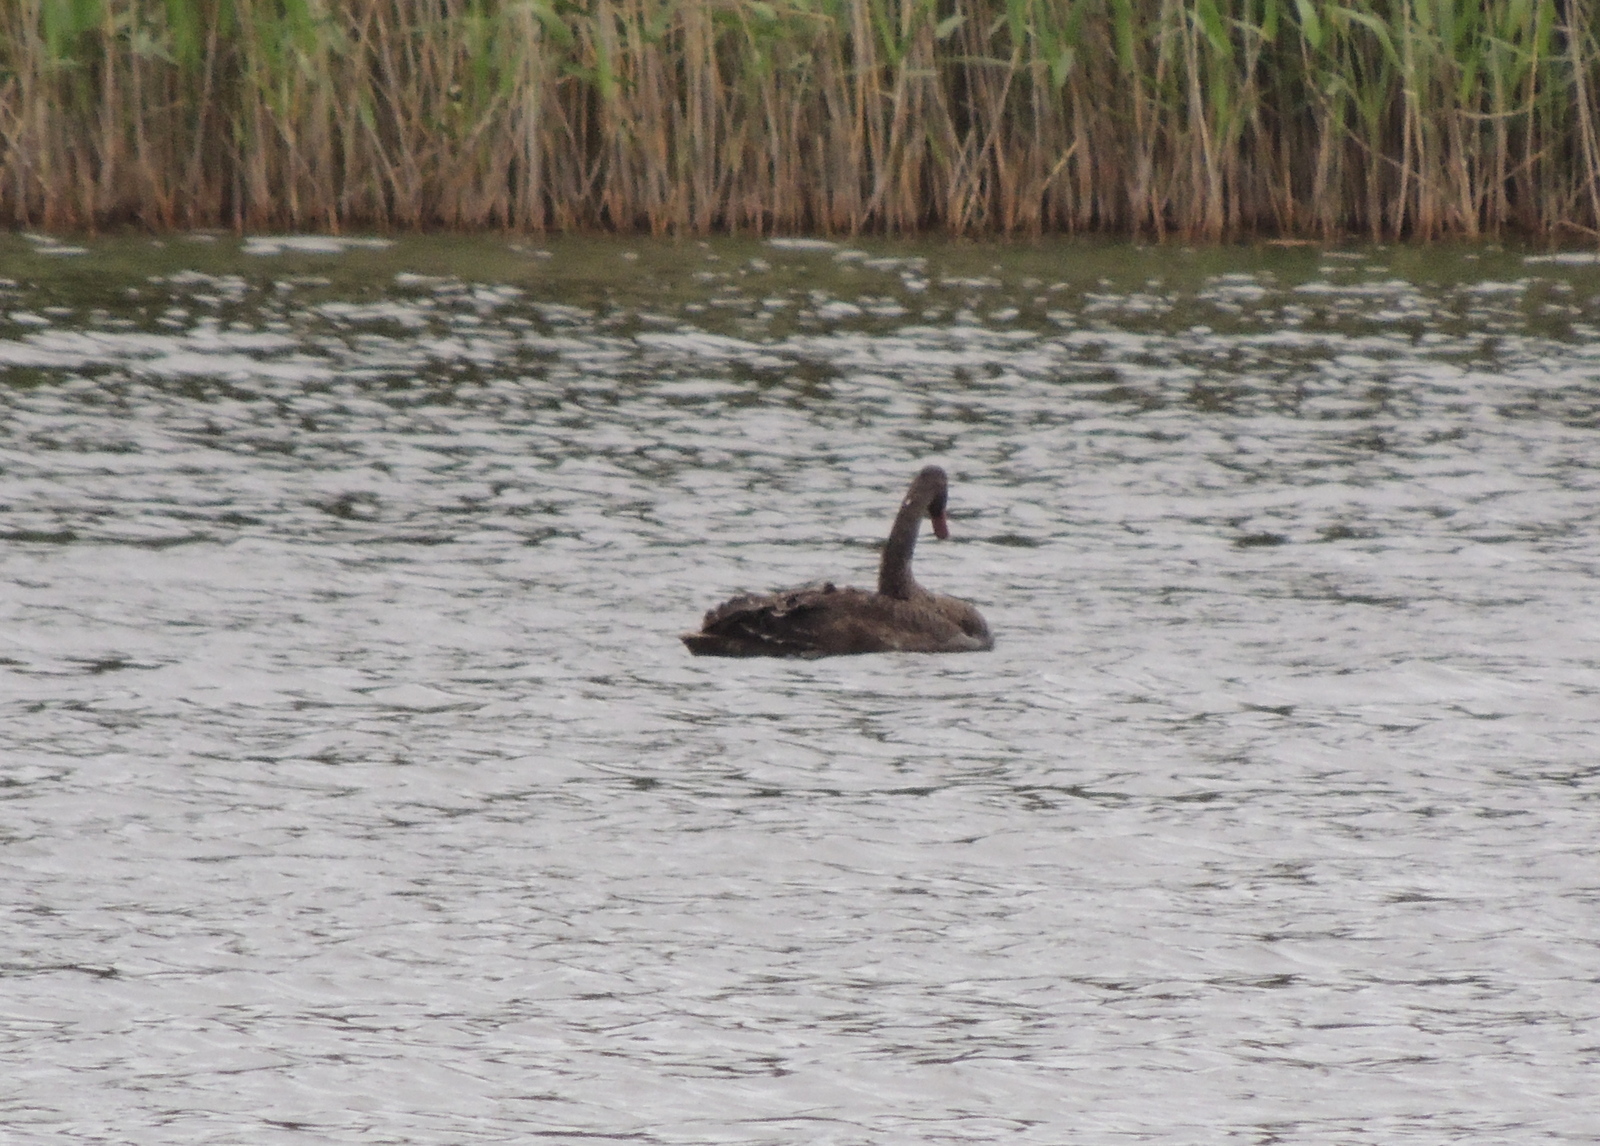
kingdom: Animalia
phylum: Chordata
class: Aves
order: Anseriformes
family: Anatidae
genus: Cygnus
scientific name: Cygnus atratus
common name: Black swan
